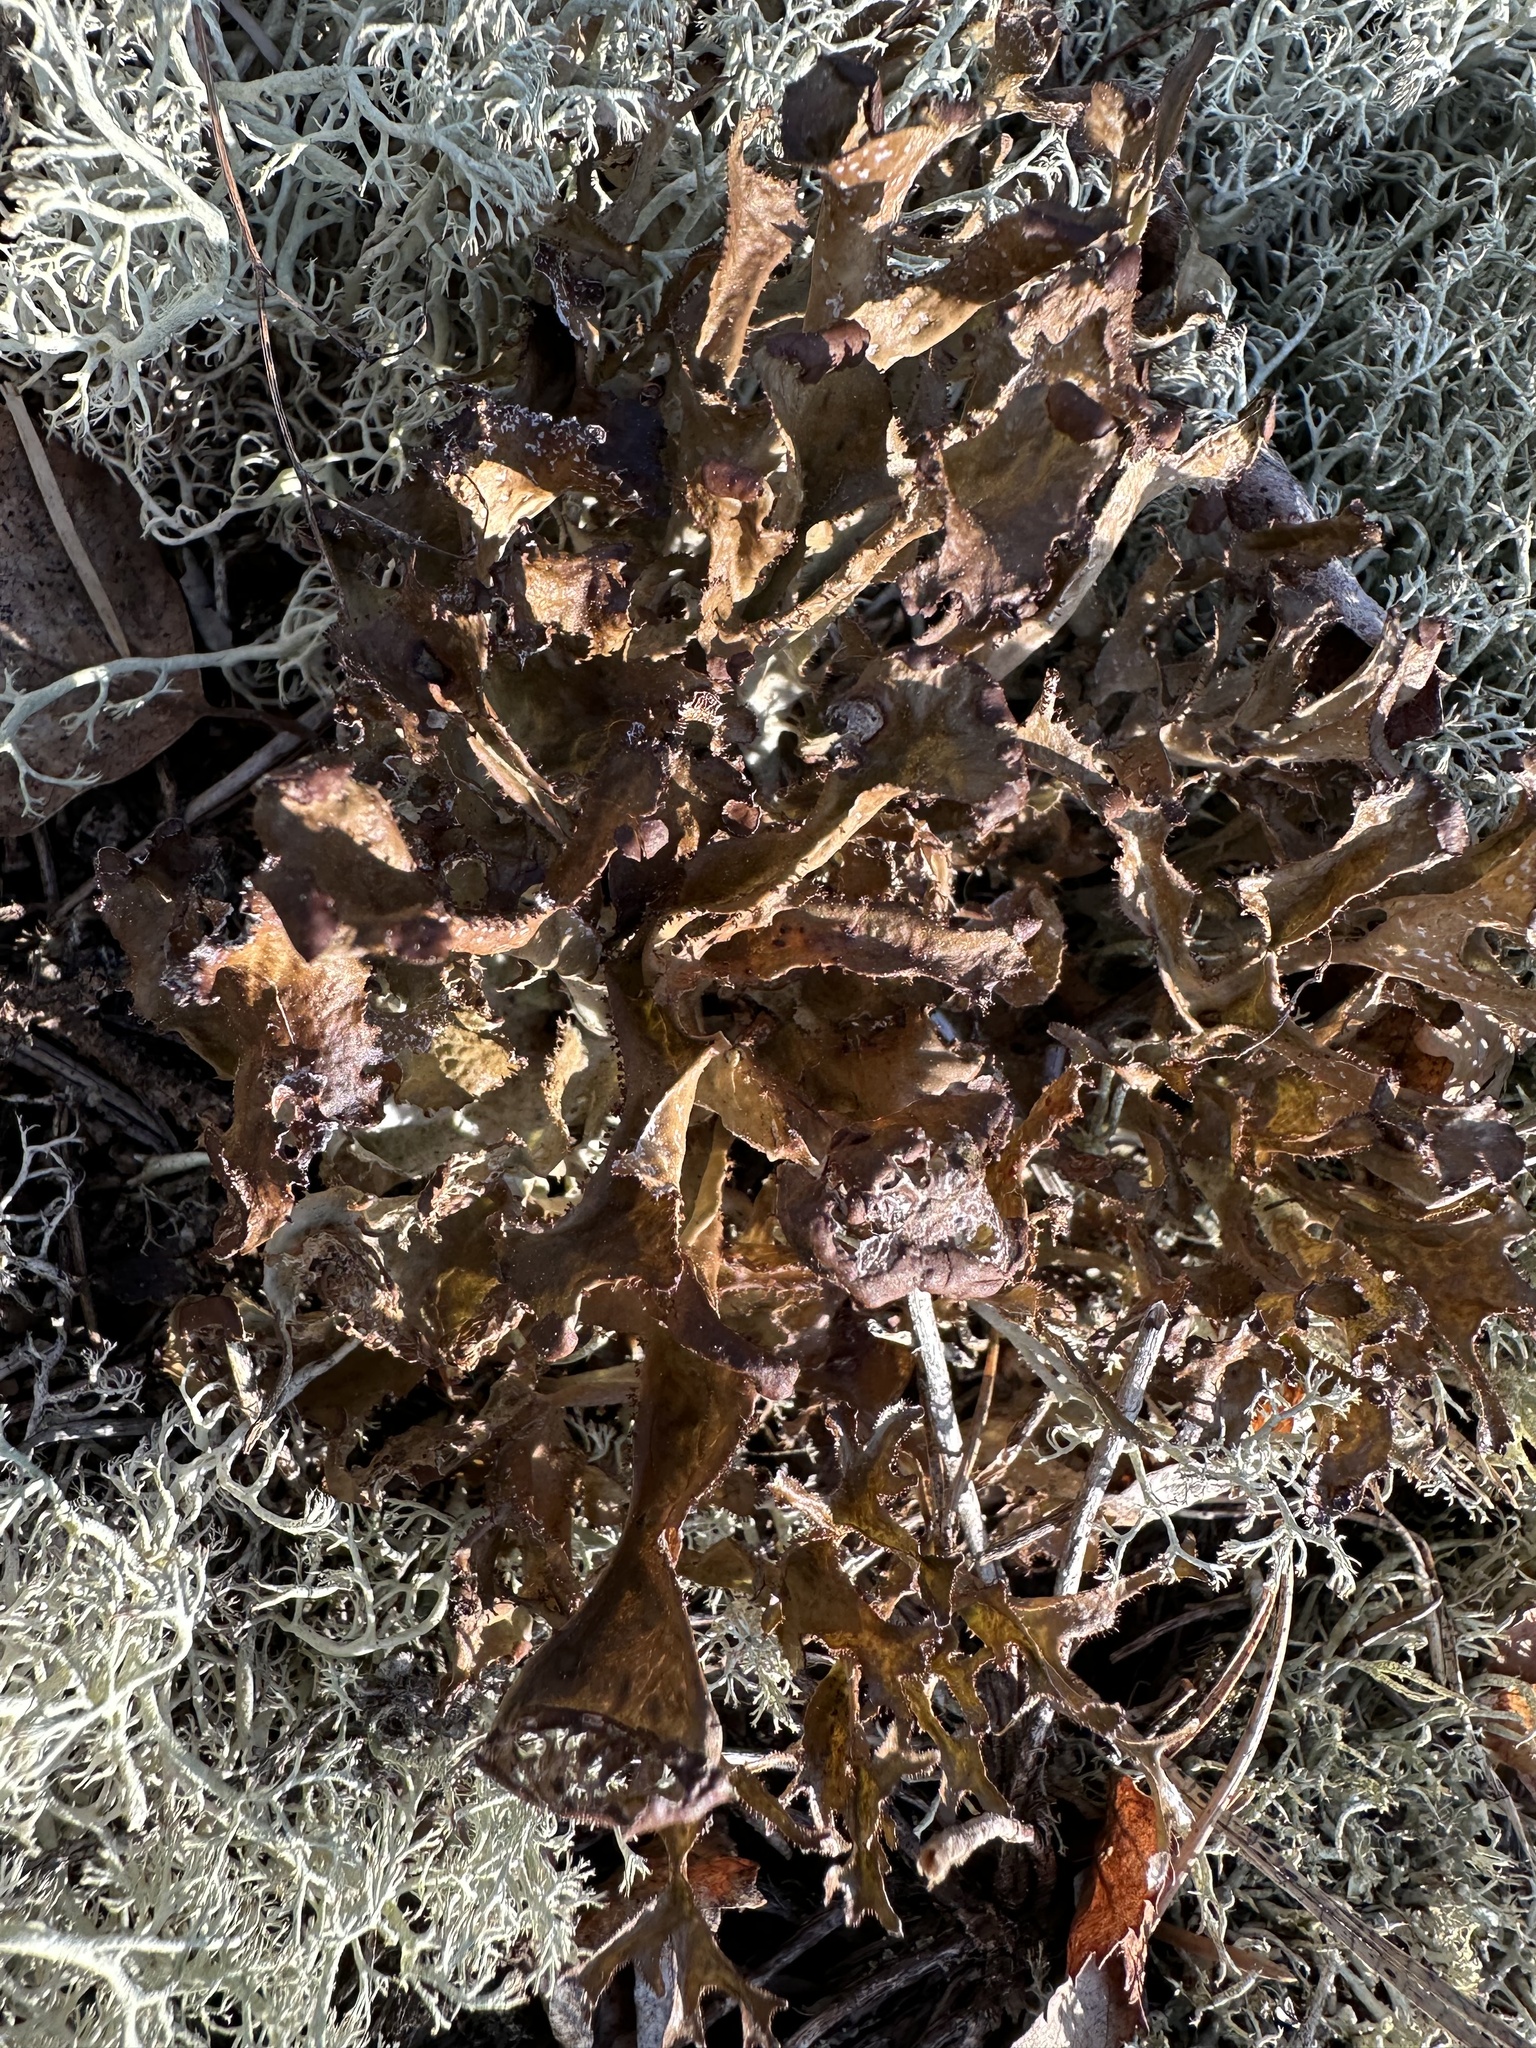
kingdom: Fungi
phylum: Ascomycota
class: Lecanoromycetes
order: Lecanorales
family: Parmeliaceae
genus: Cetraria
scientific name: Cetraria islandica
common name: Iceland lichen
